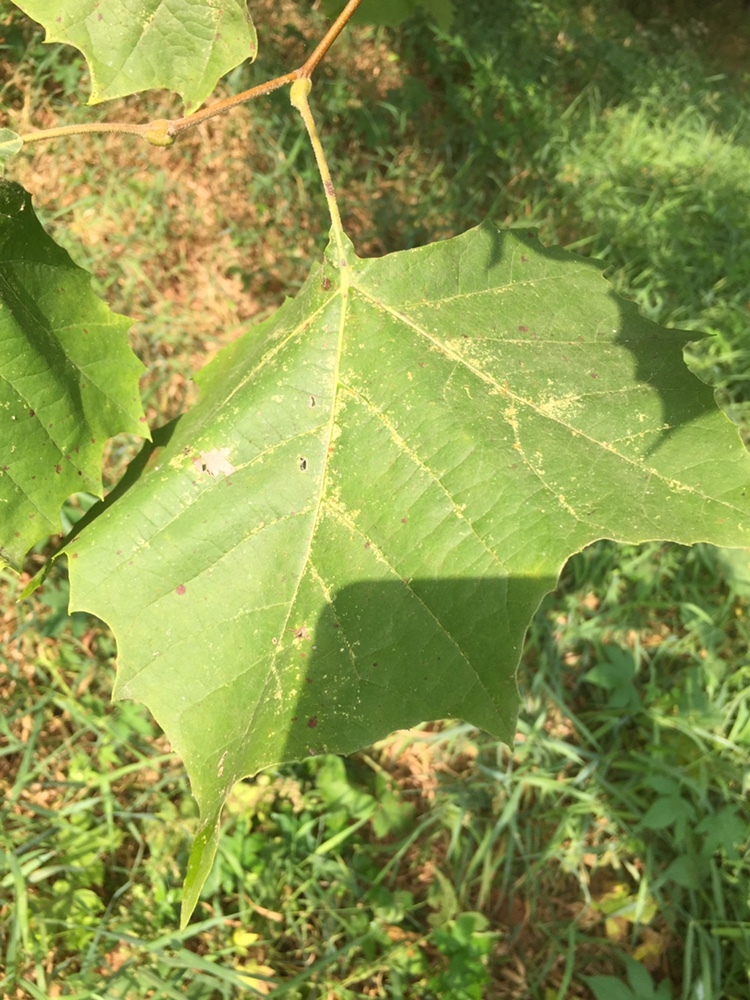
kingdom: Plantae
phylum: Tracheophyta
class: Magnoliopsida
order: Proteales
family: Platanaceae
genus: Platanus
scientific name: Platanus occidentalis
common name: American sycamore
